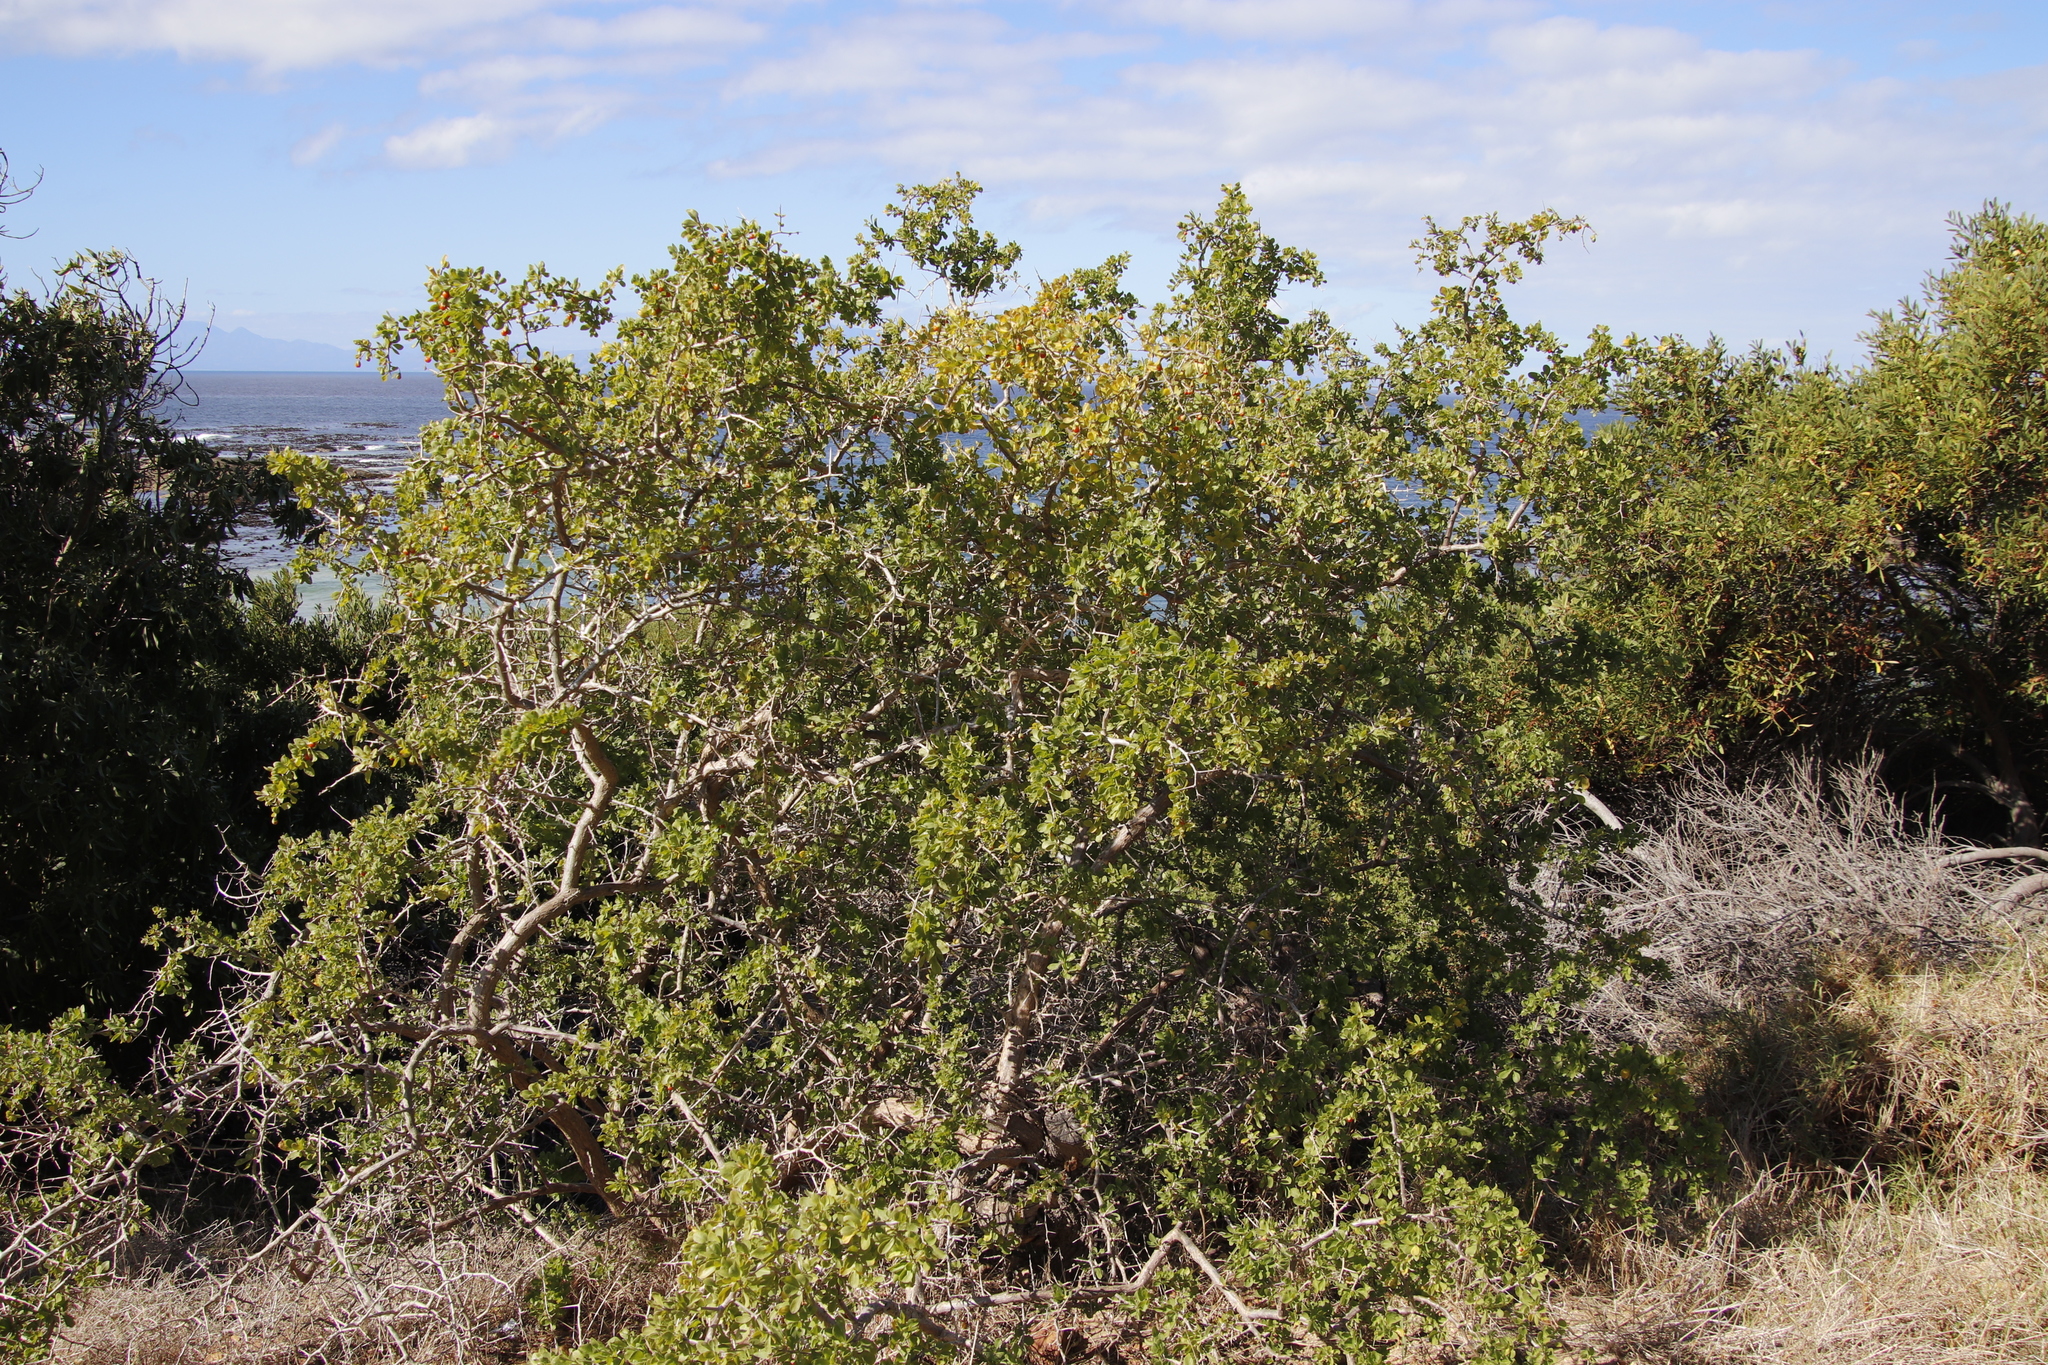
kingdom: Plantae
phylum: Tracheophyta
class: Magnoliopsida
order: Solanales
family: Solanaceae
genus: Lycium
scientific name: Lycium ferocissimum
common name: African boxthorn
